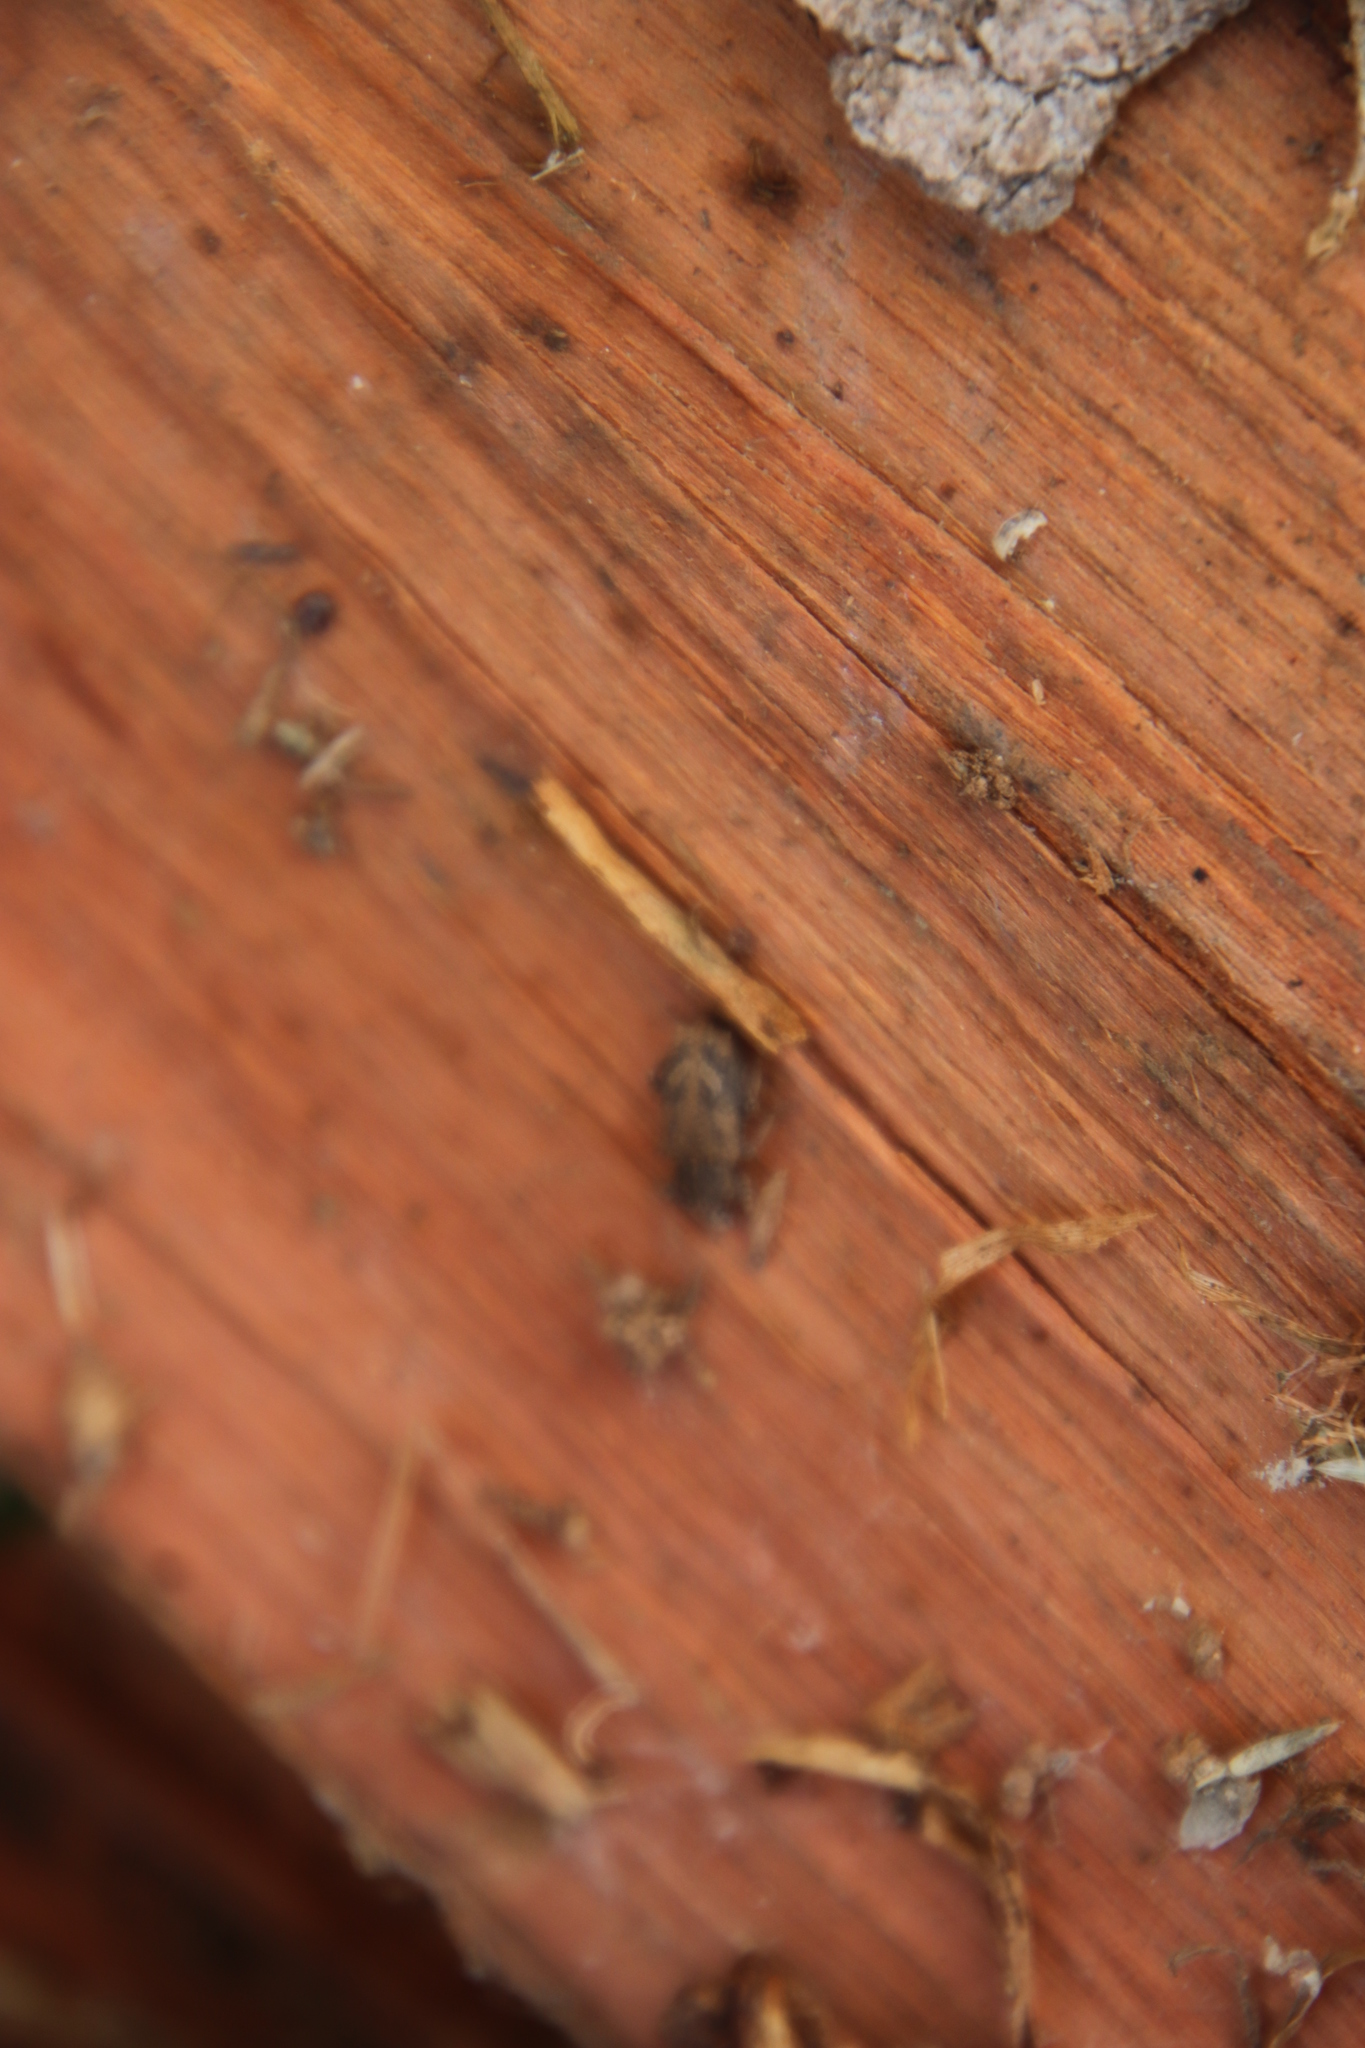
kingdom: Animalia
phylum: Arthropoda
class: Insecta
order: Coleoptera
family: Curculionidae
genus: Listroderes
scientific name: Listroderes costirostris
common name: Weevil
